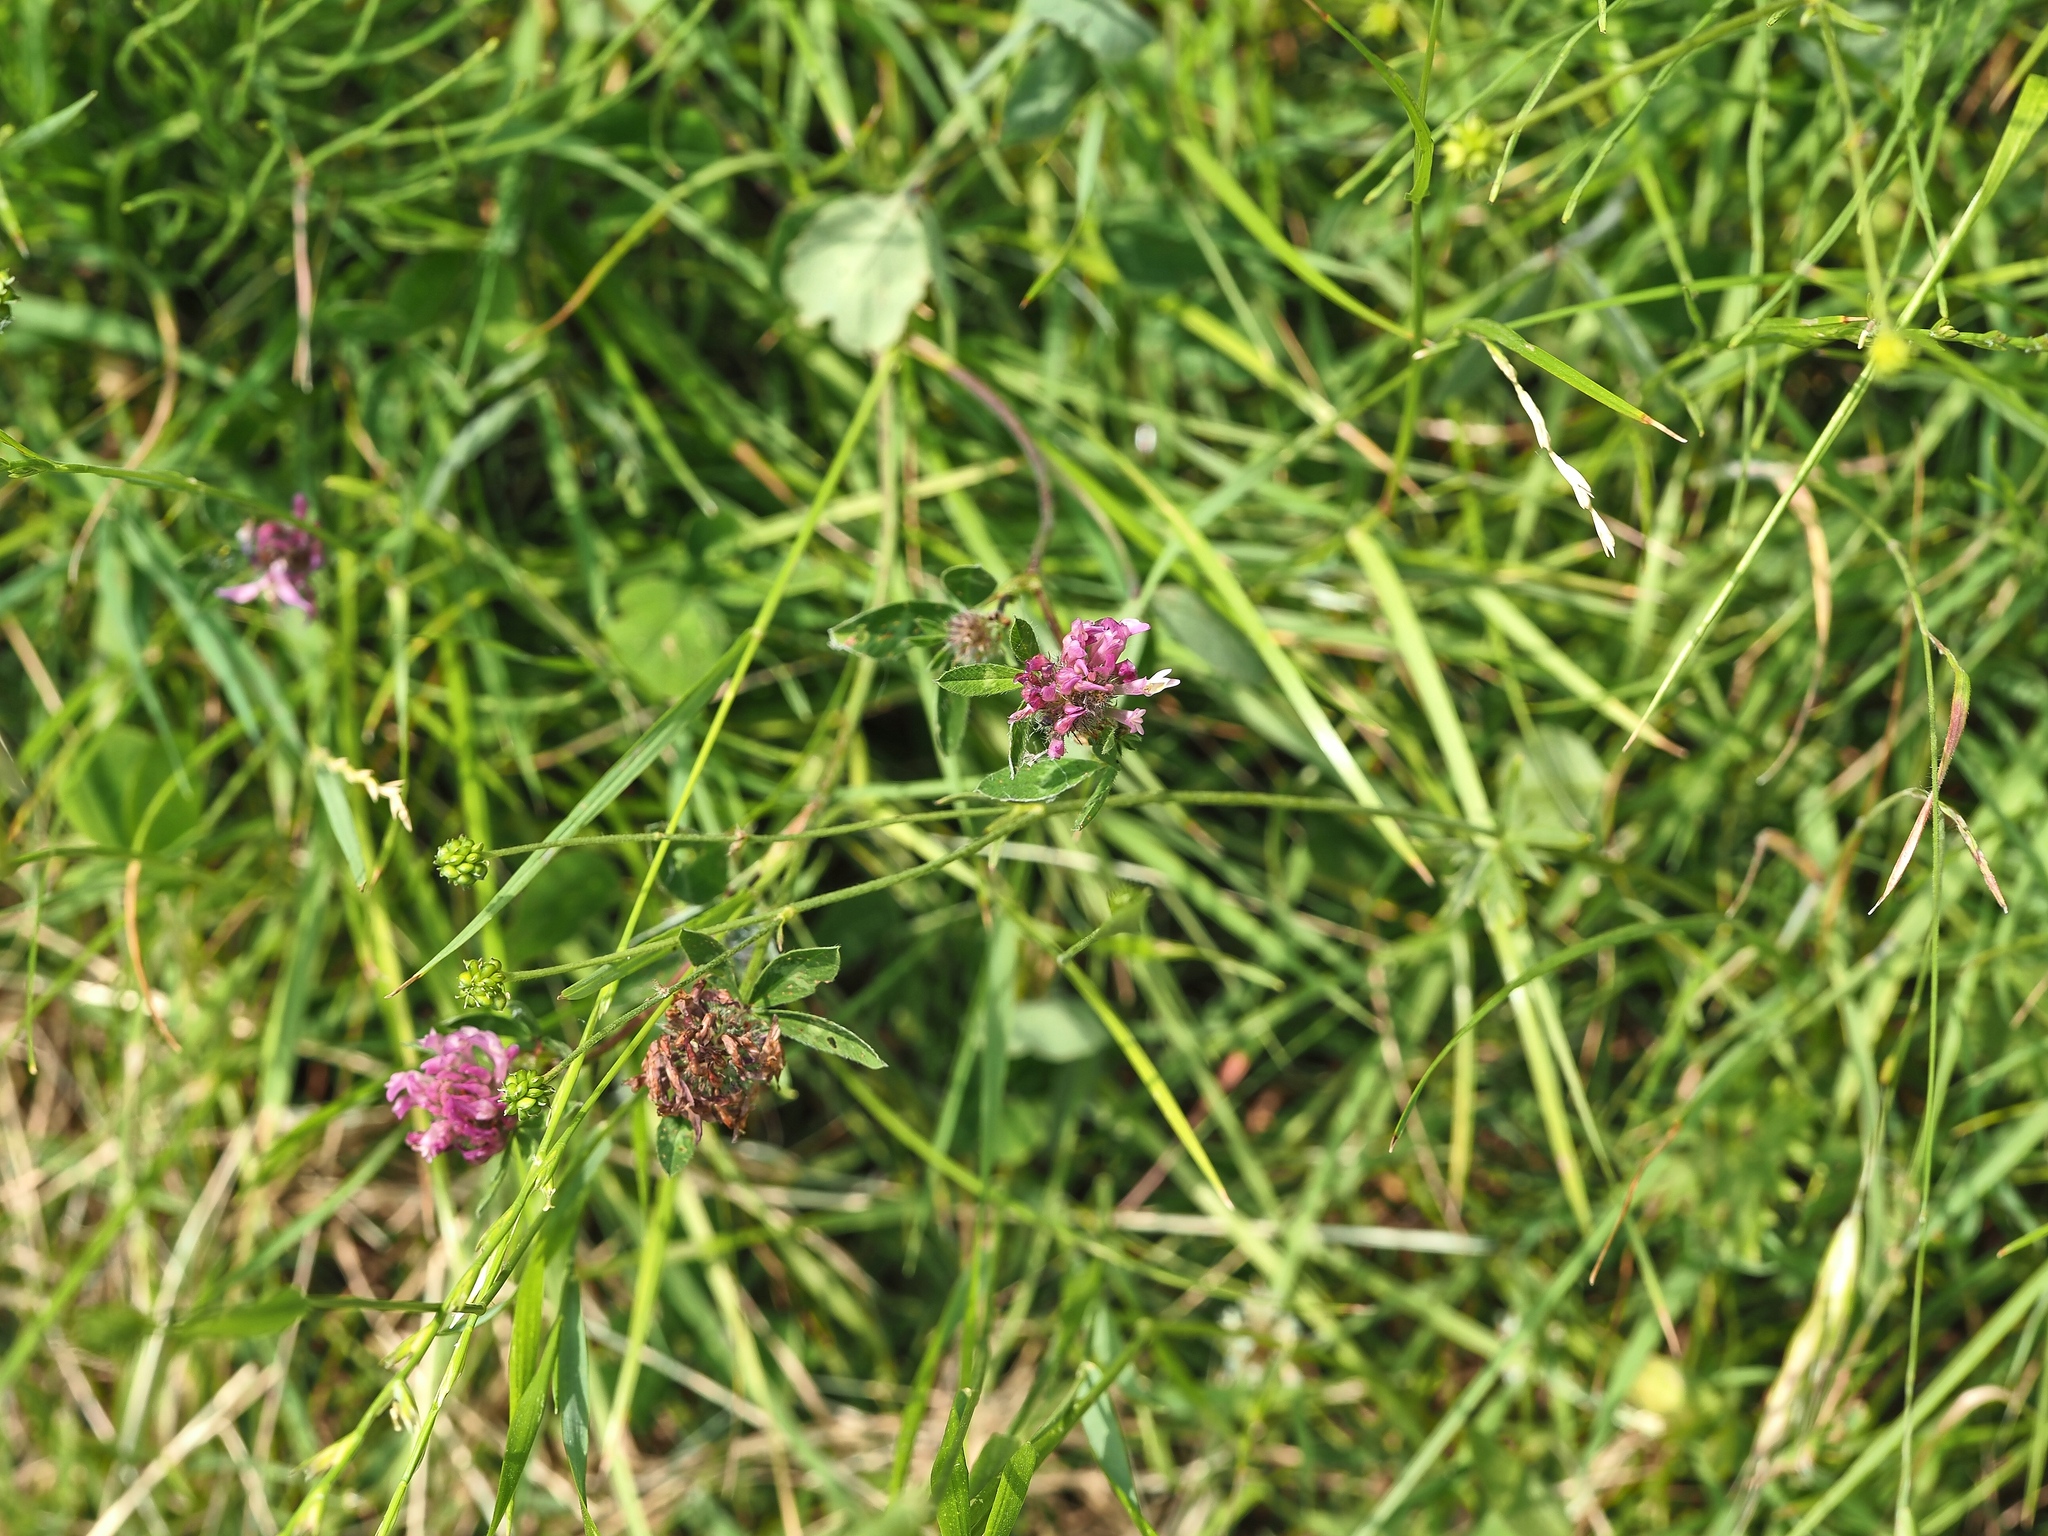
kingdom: Plantae
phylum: Tracheophyta
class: Magnoliopsida
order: Fabales
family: Fabaceae
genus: Trifolium
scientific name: Trifolium pratense
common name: Red clover
